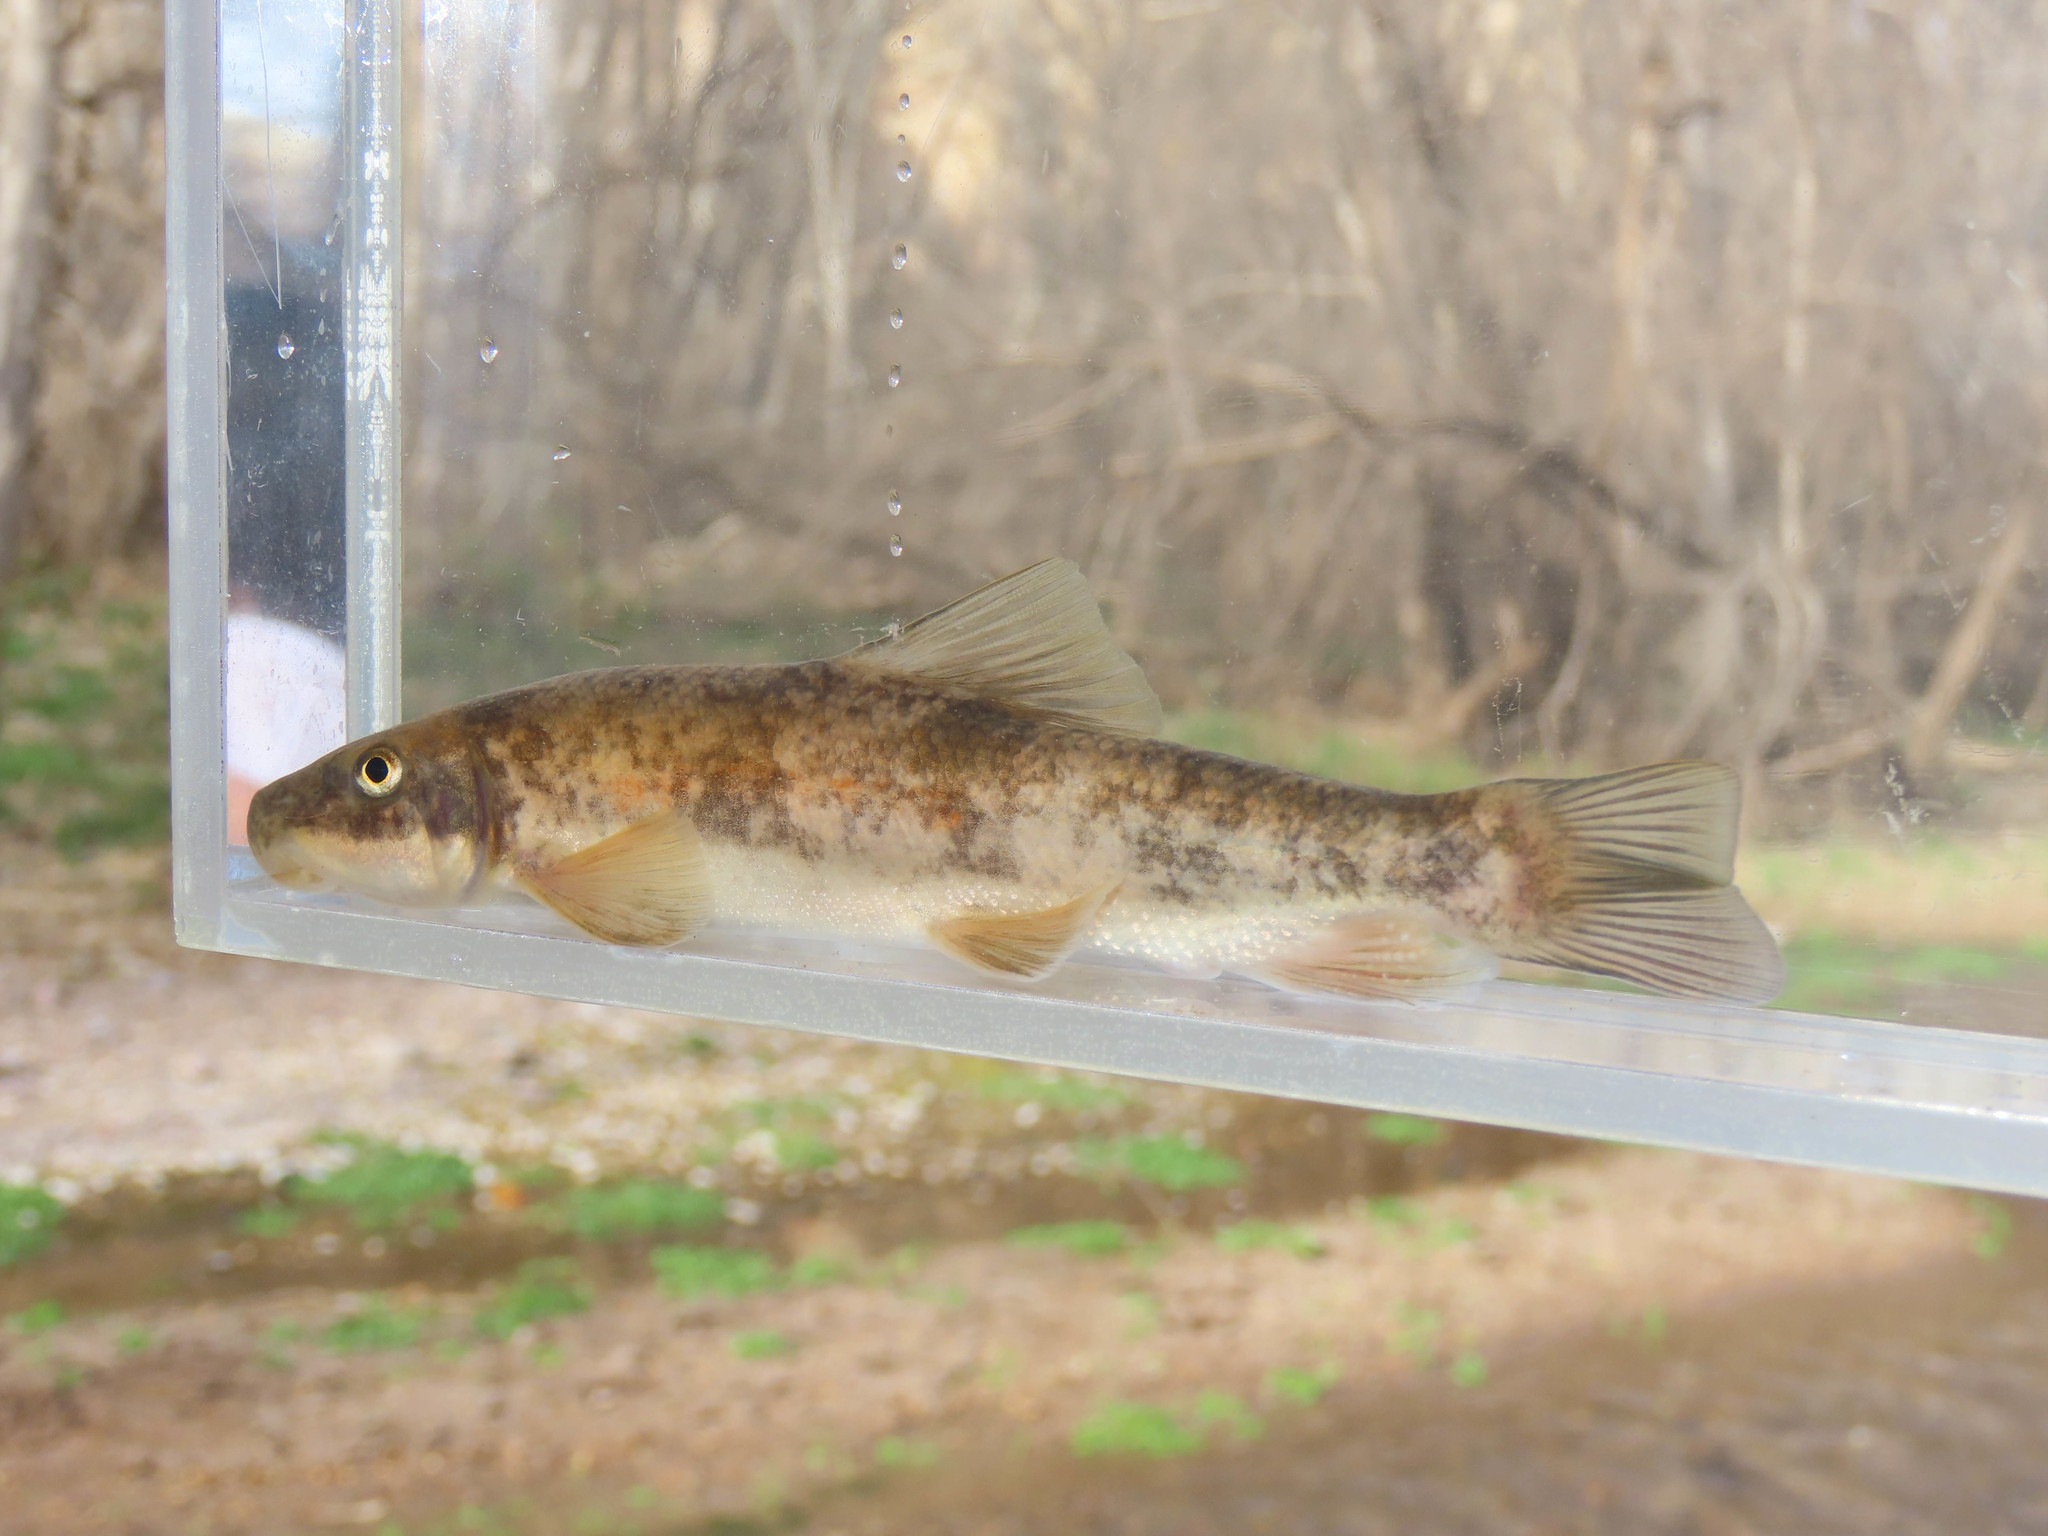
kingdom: Animalia
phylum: Chordata
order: Cypriniformes
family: Catostomidae
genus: Catostomus
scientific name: Catostomus clarkii
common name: Desert sucker
